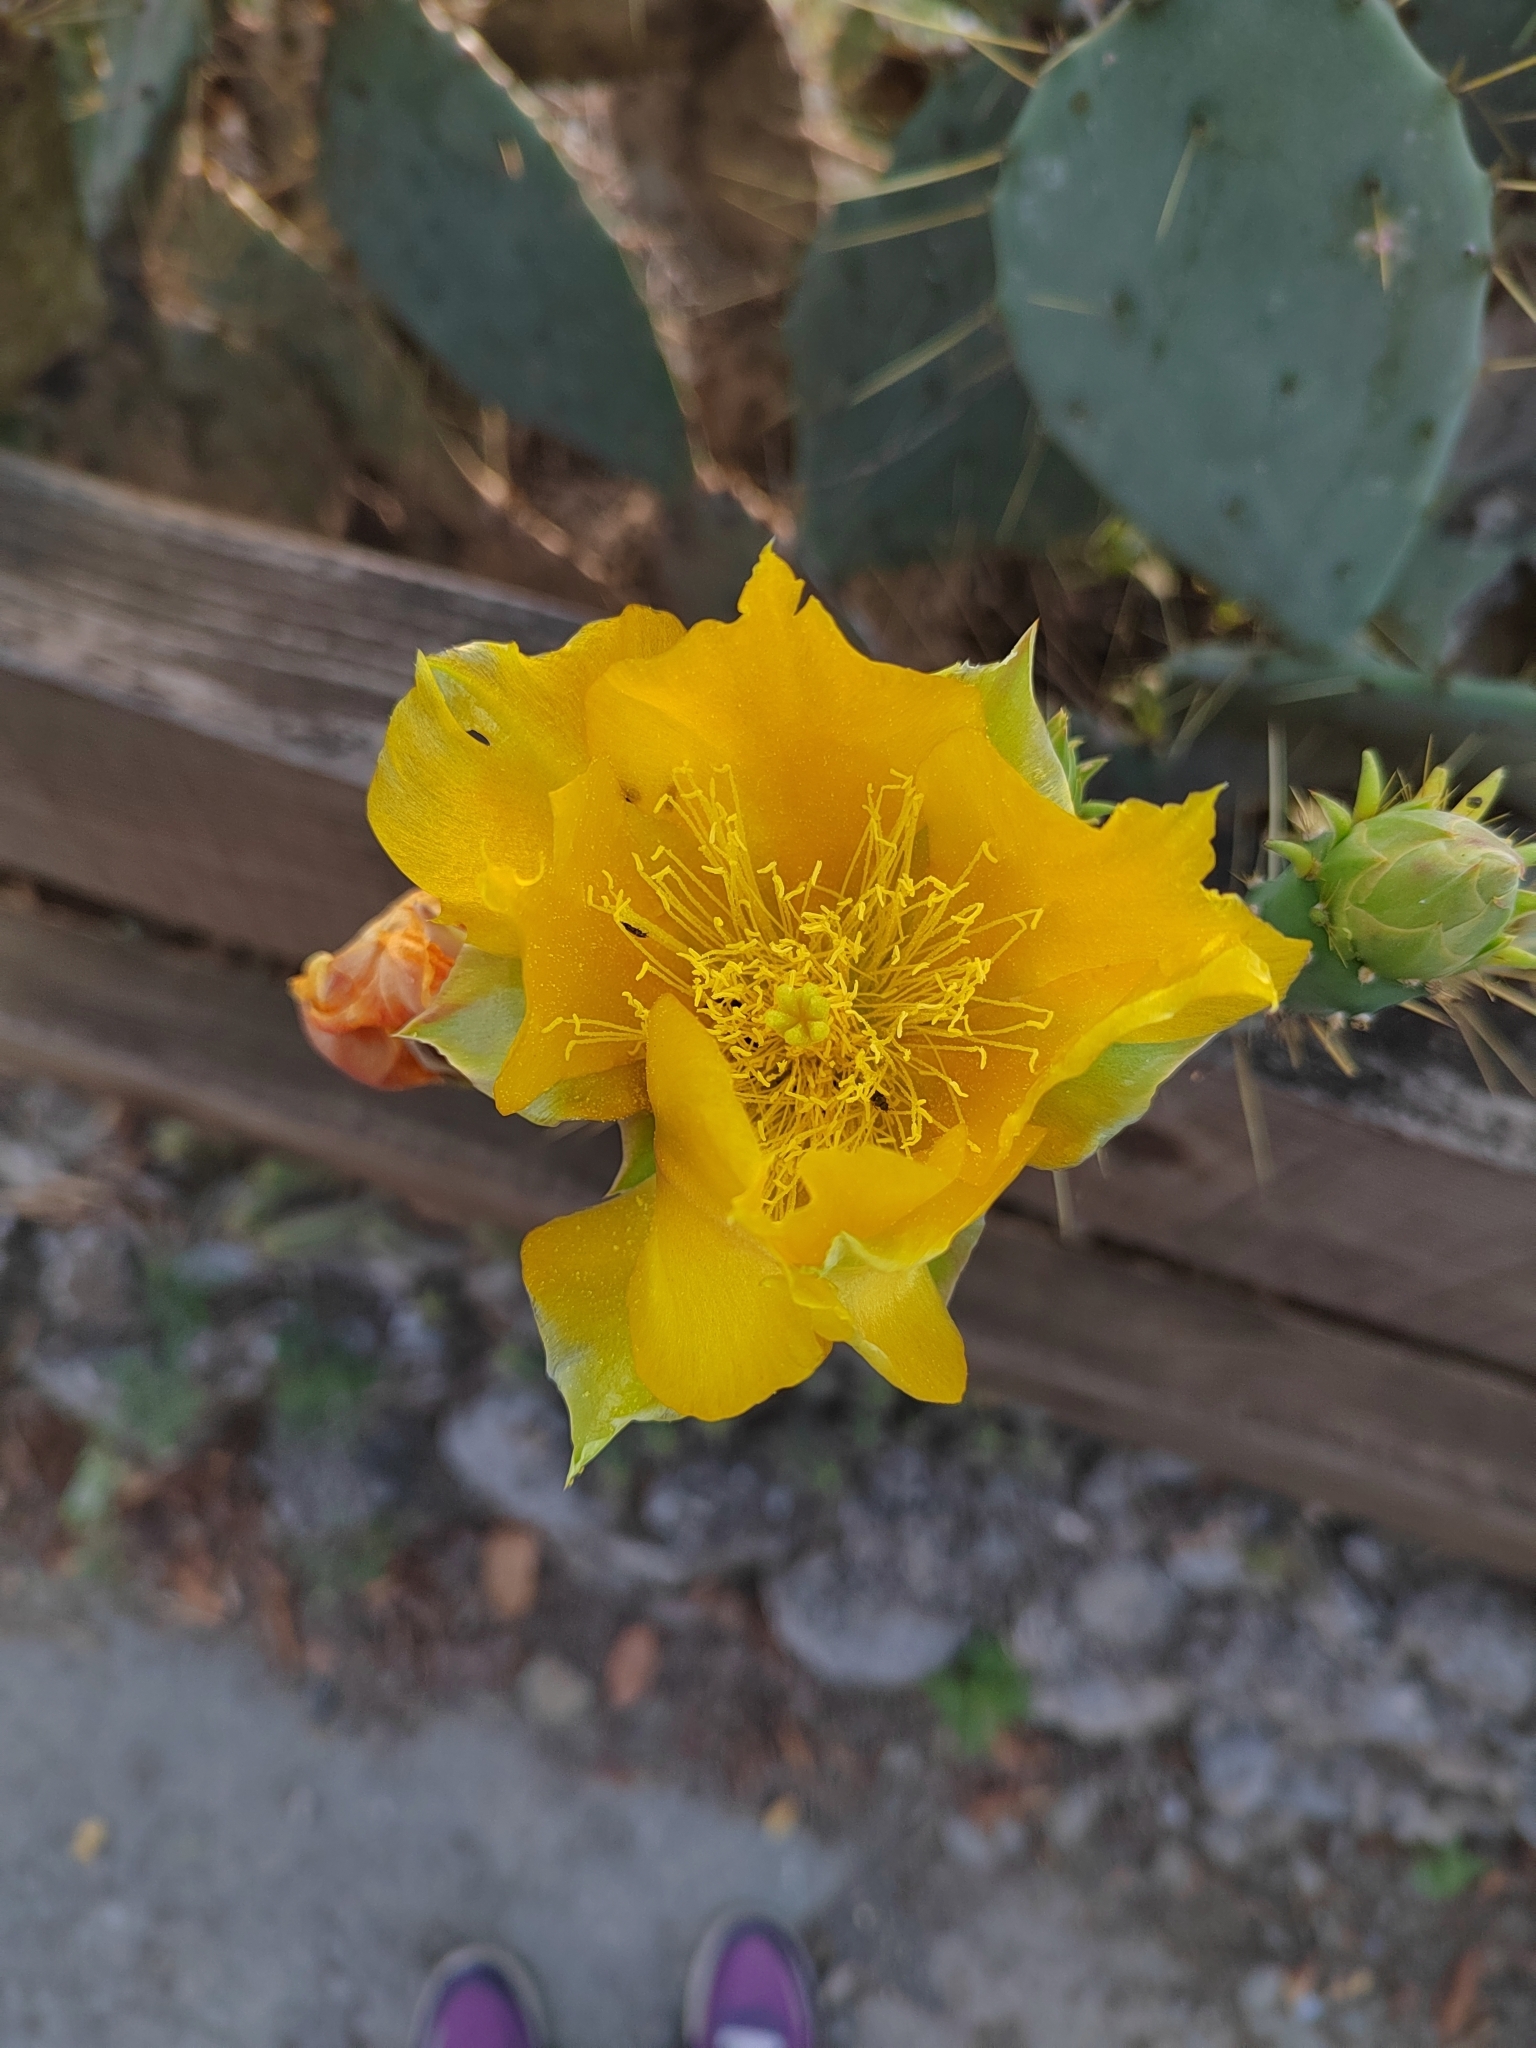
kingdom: Plantae
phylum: Tracheophyta
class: Magnoliopsida
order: Caryophyllales
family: Cactaceae
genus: Opuntia
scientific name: Opuntia engelmannii
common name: Cactus-apple
